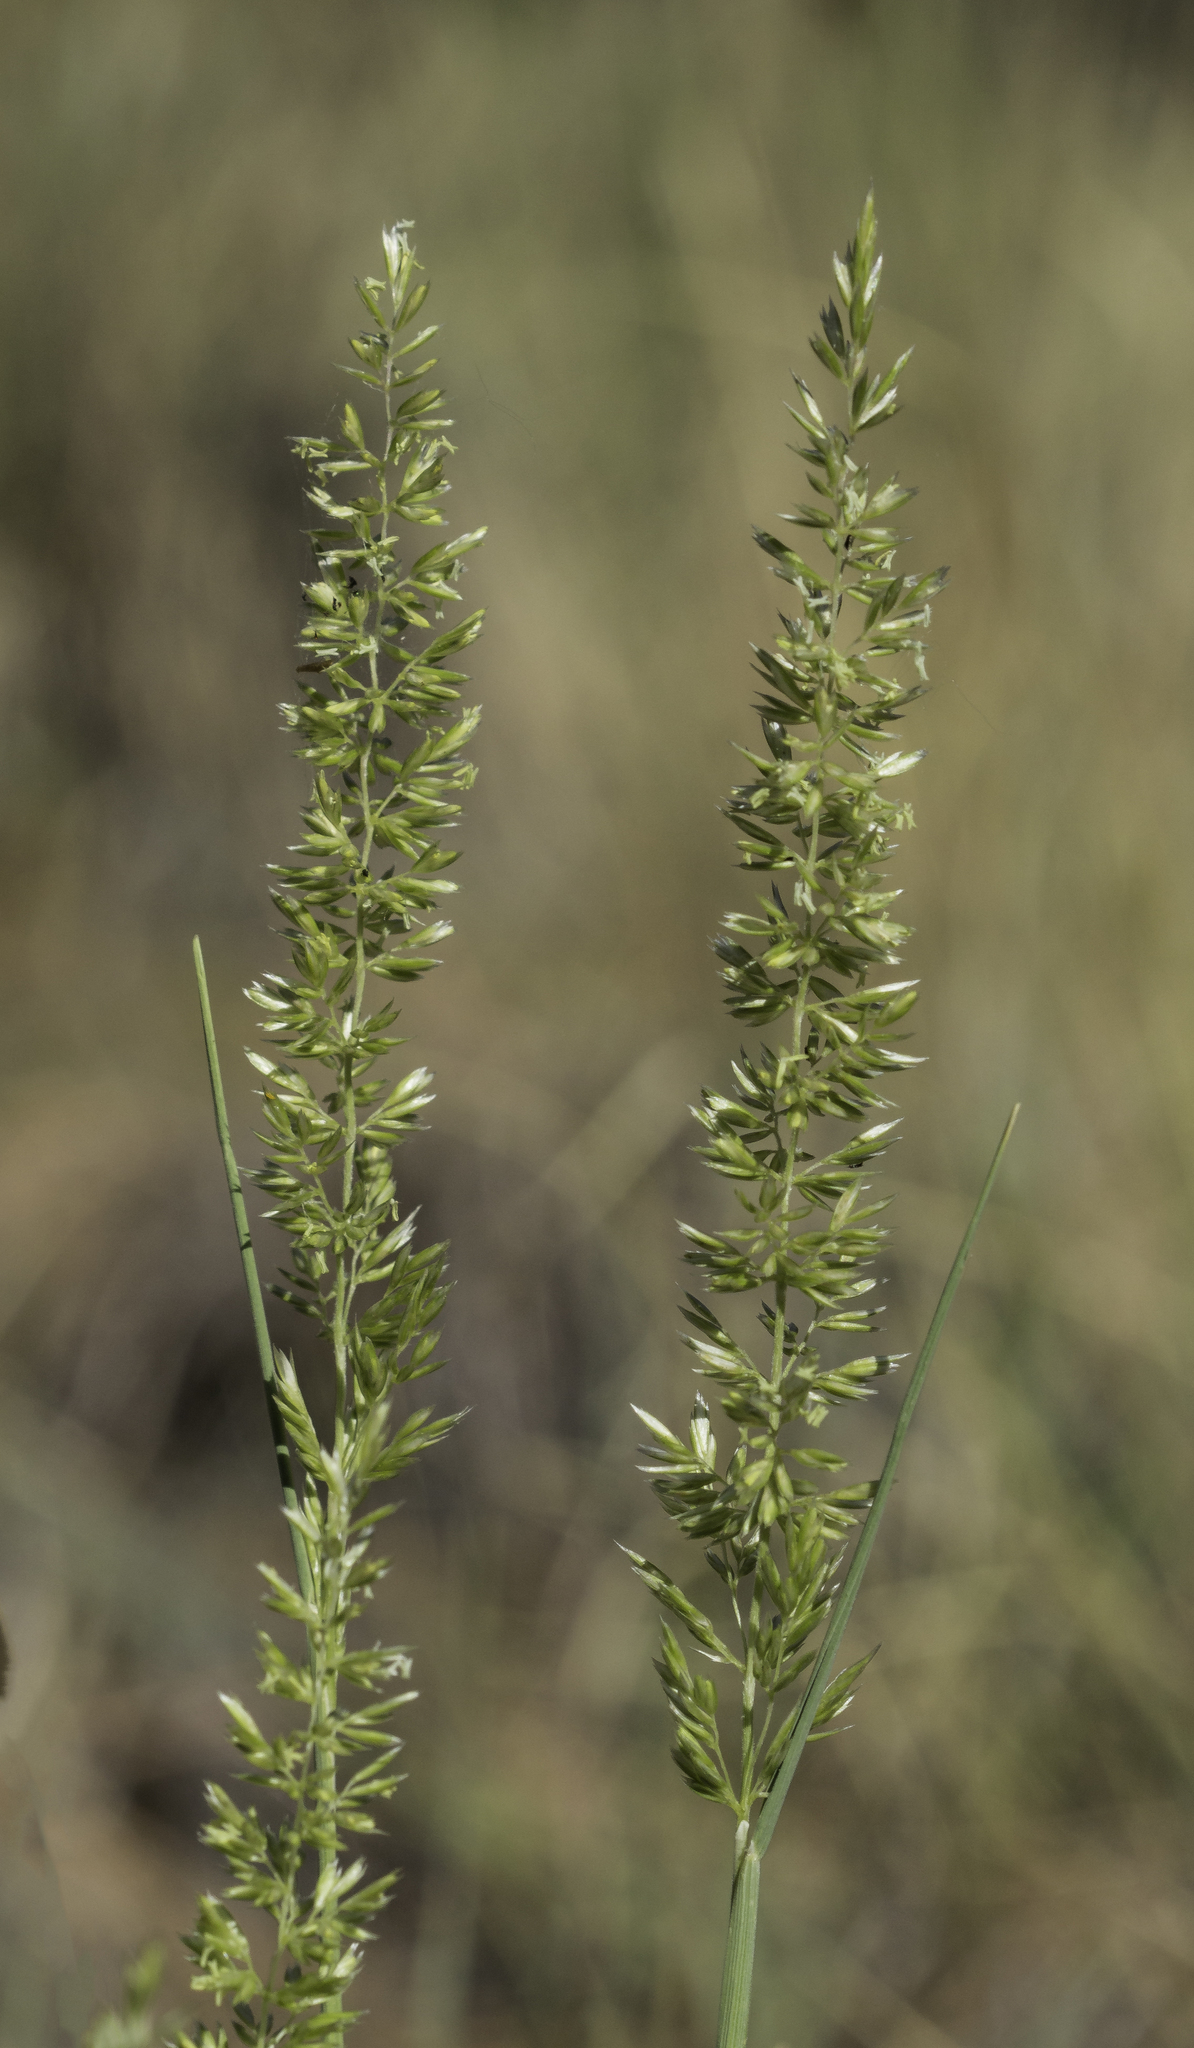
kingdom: Plantae
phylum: Tracheophyta
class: Liliopsida
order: Poales
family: Poaceae
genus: Koeleria
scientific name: Koeleria macrantha
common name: Crested hair-grass
